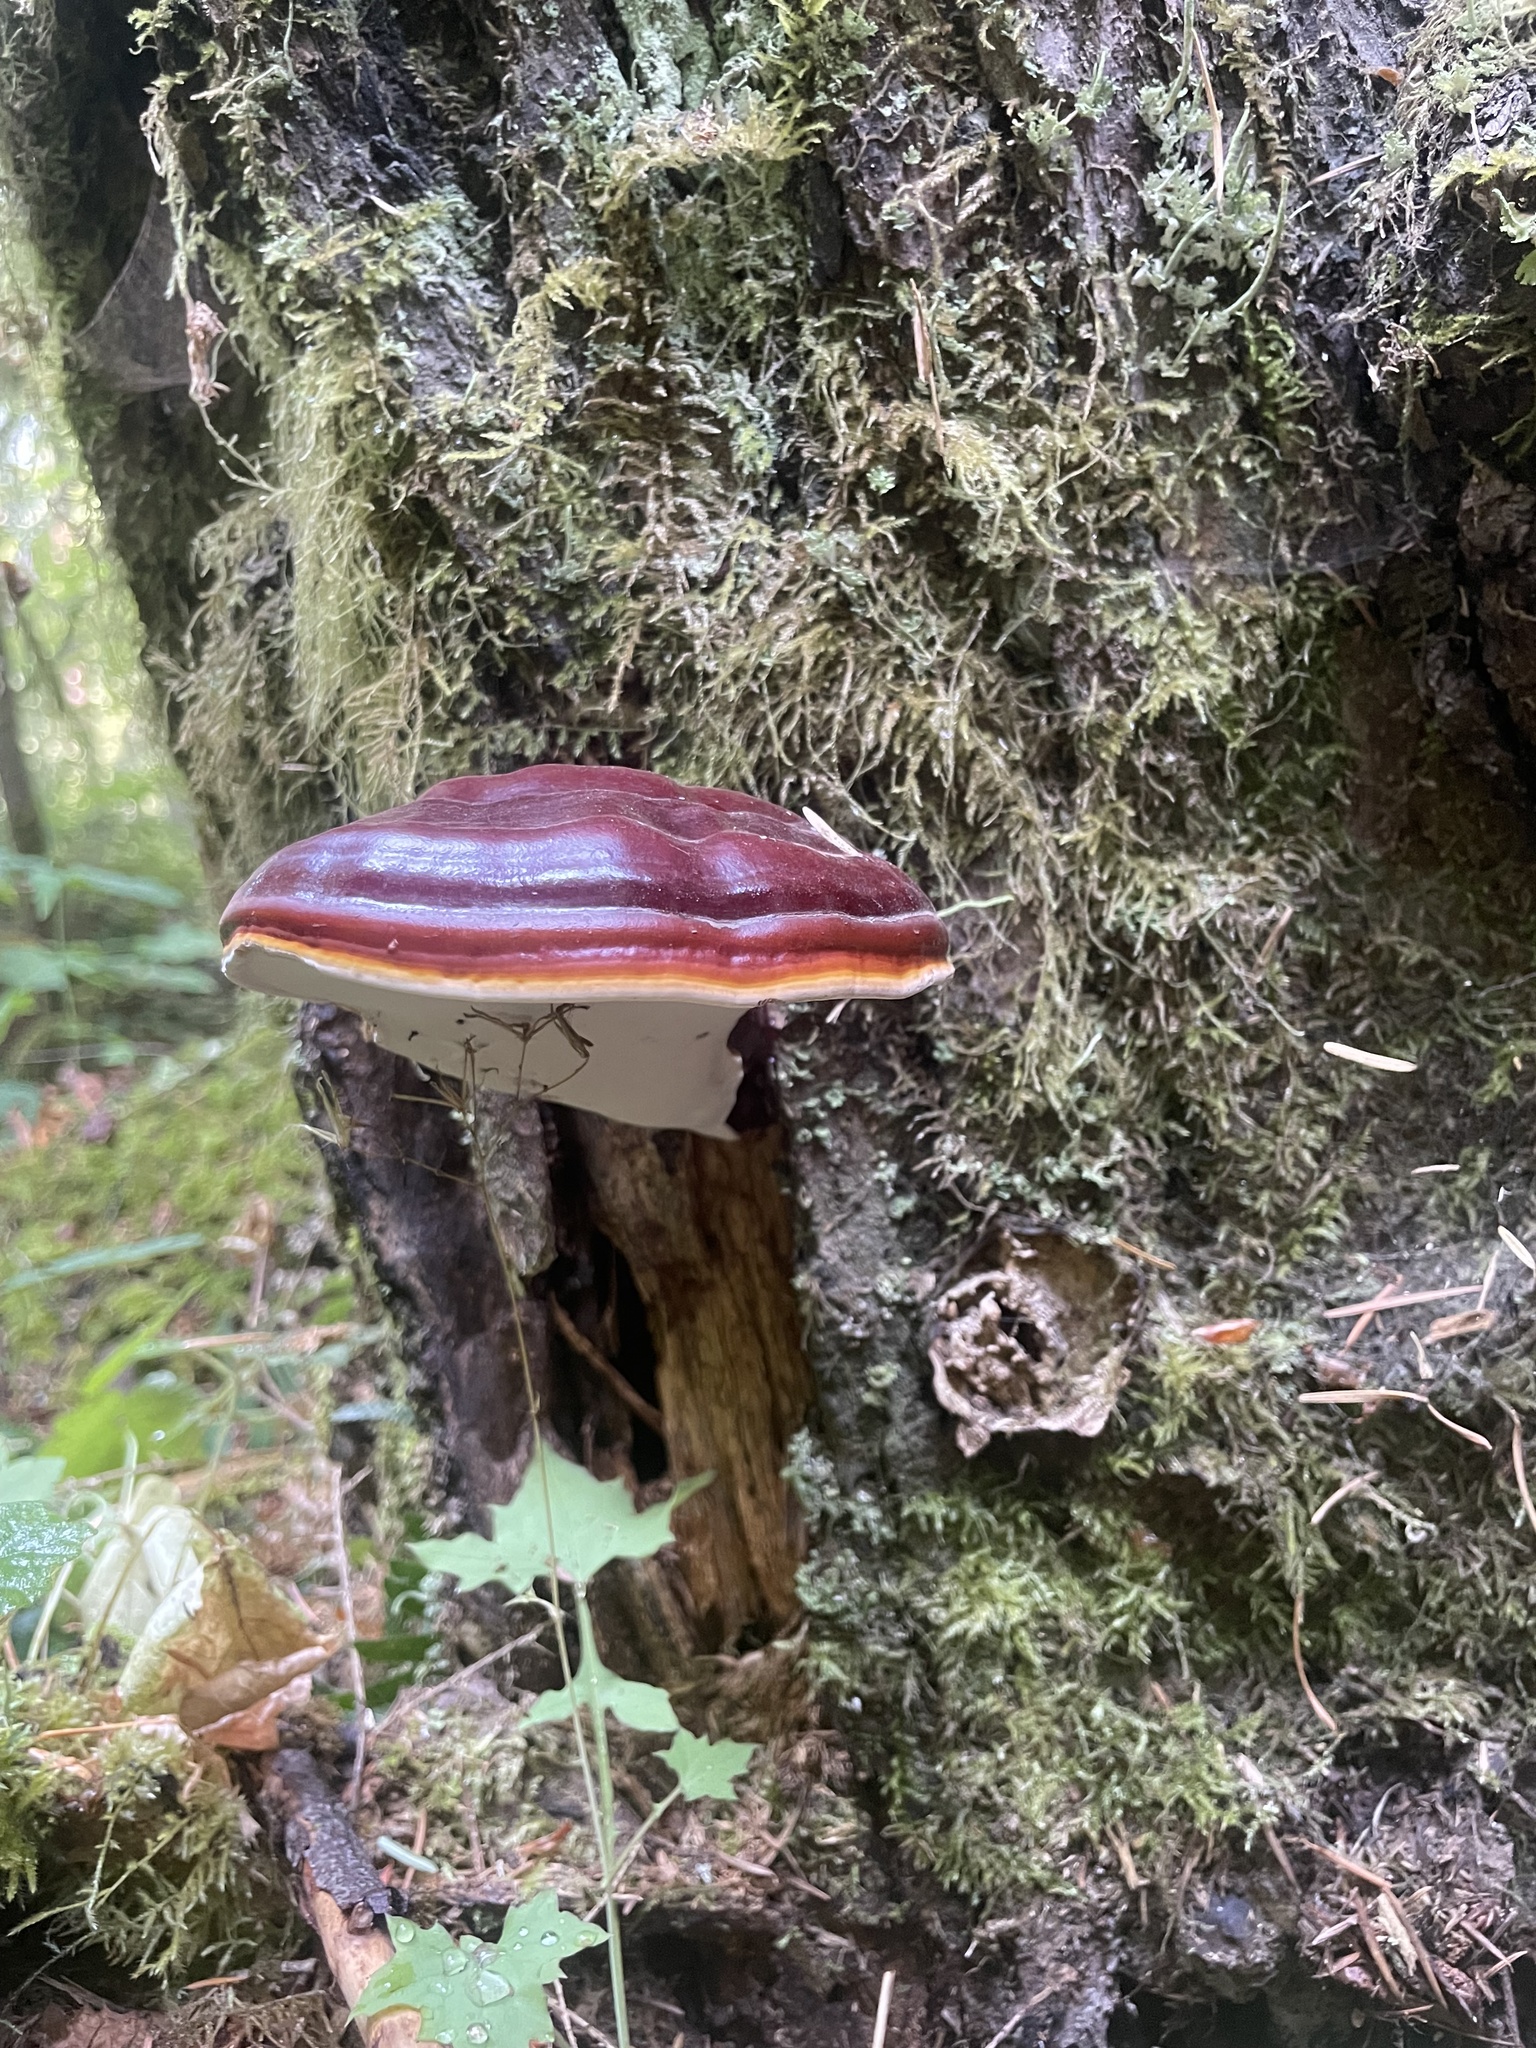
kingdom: Fungi
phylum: Basidiomycota
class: Agaricomycetes
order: Polyporales
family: Polyporaceae
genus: Ganoderma
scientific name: Ganoderma oregonense
